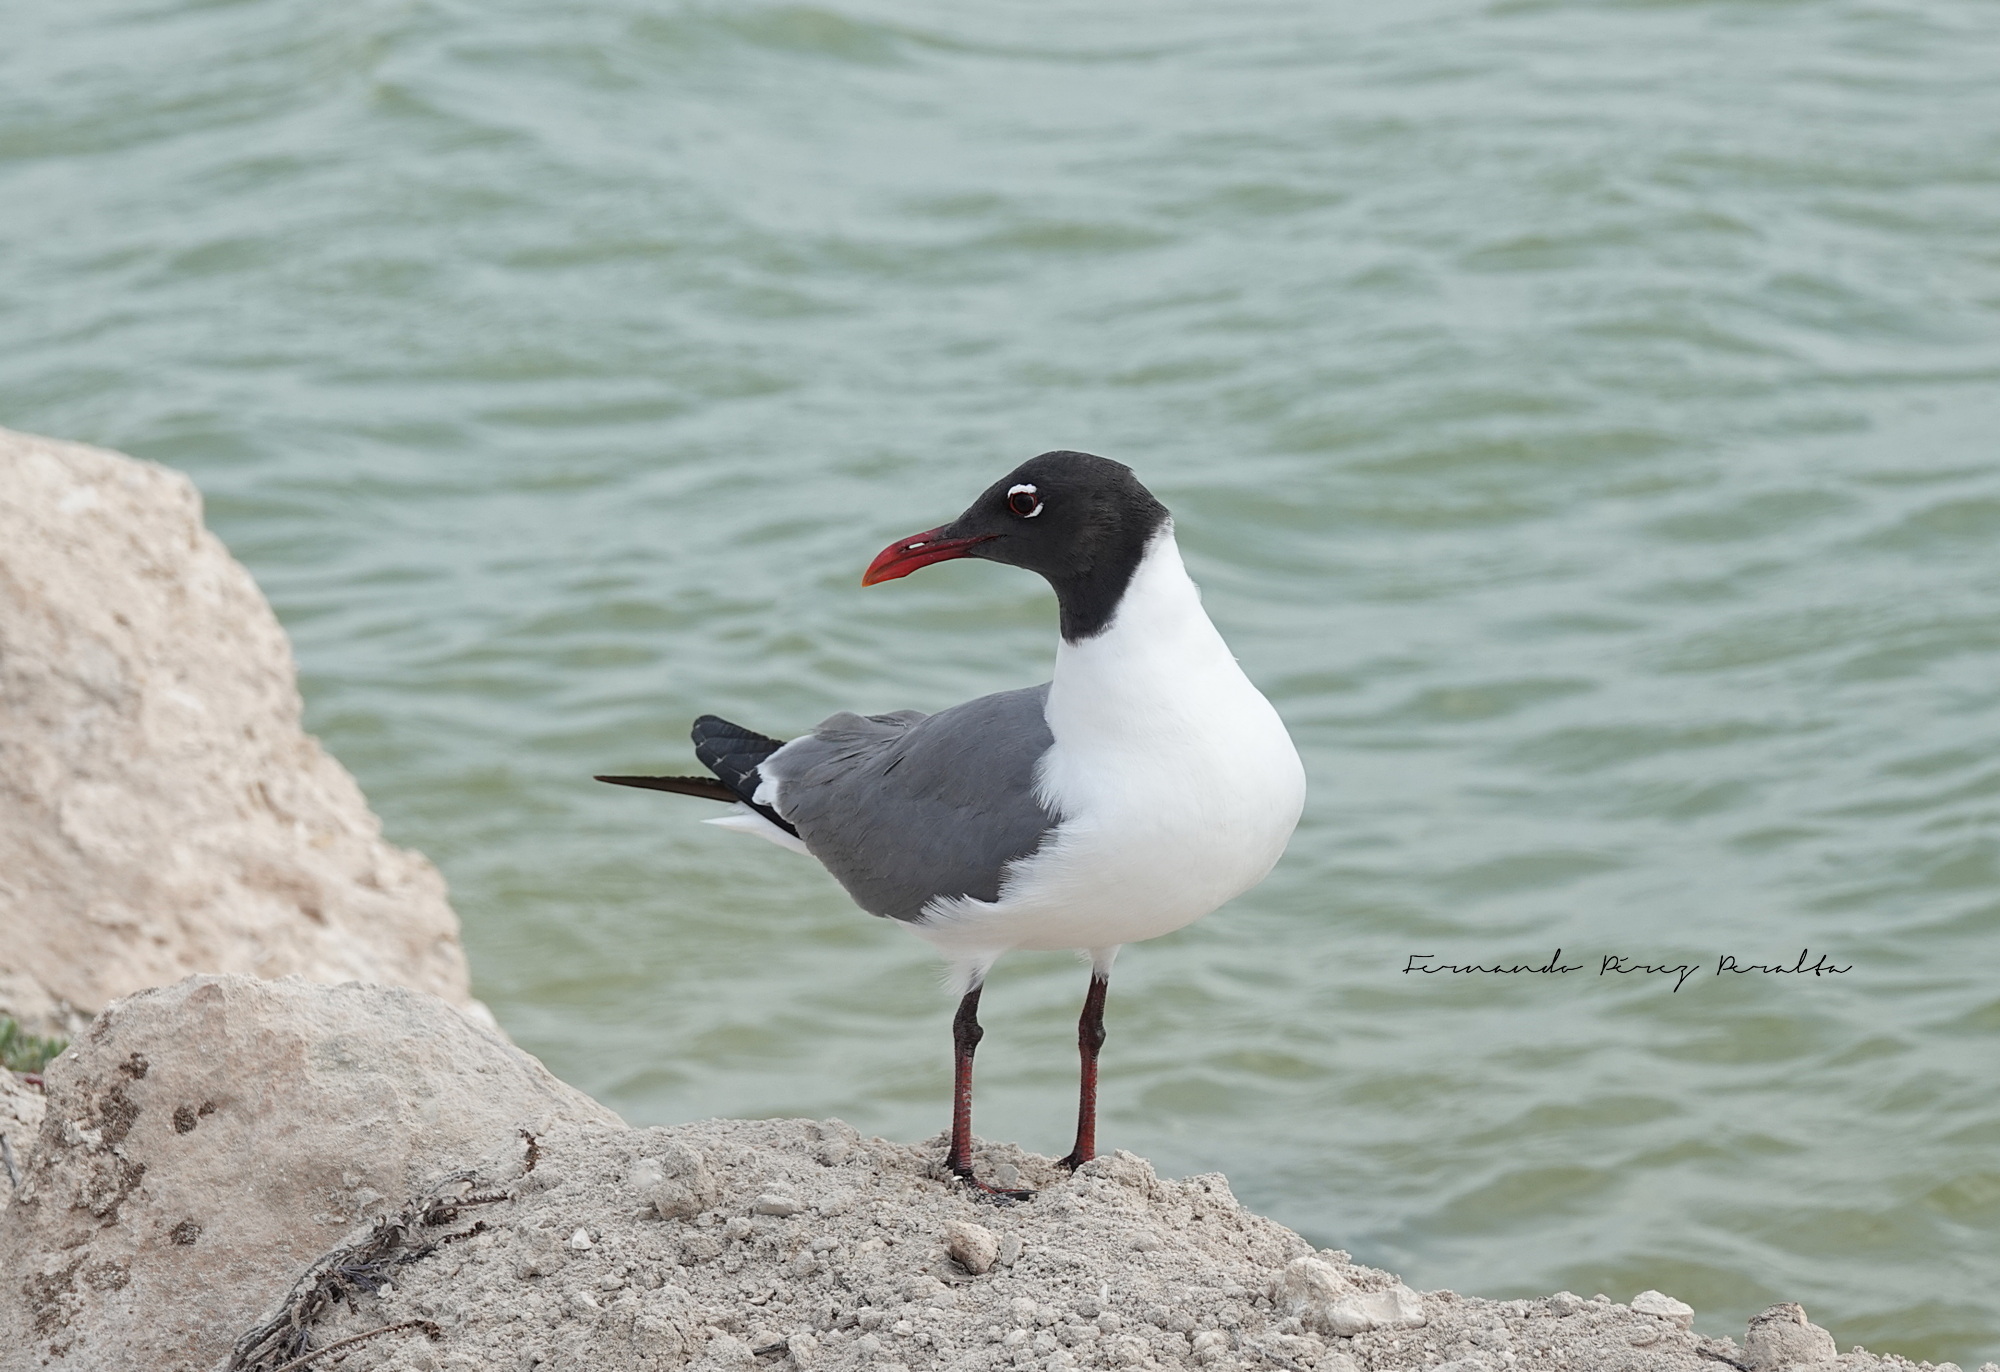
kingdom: Animalia
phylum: Chordata
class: Aves
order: Charadriiformes
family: Laridae
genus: Leucophaeus
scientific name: Leucophaeus atricilla
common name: Laughing gull
